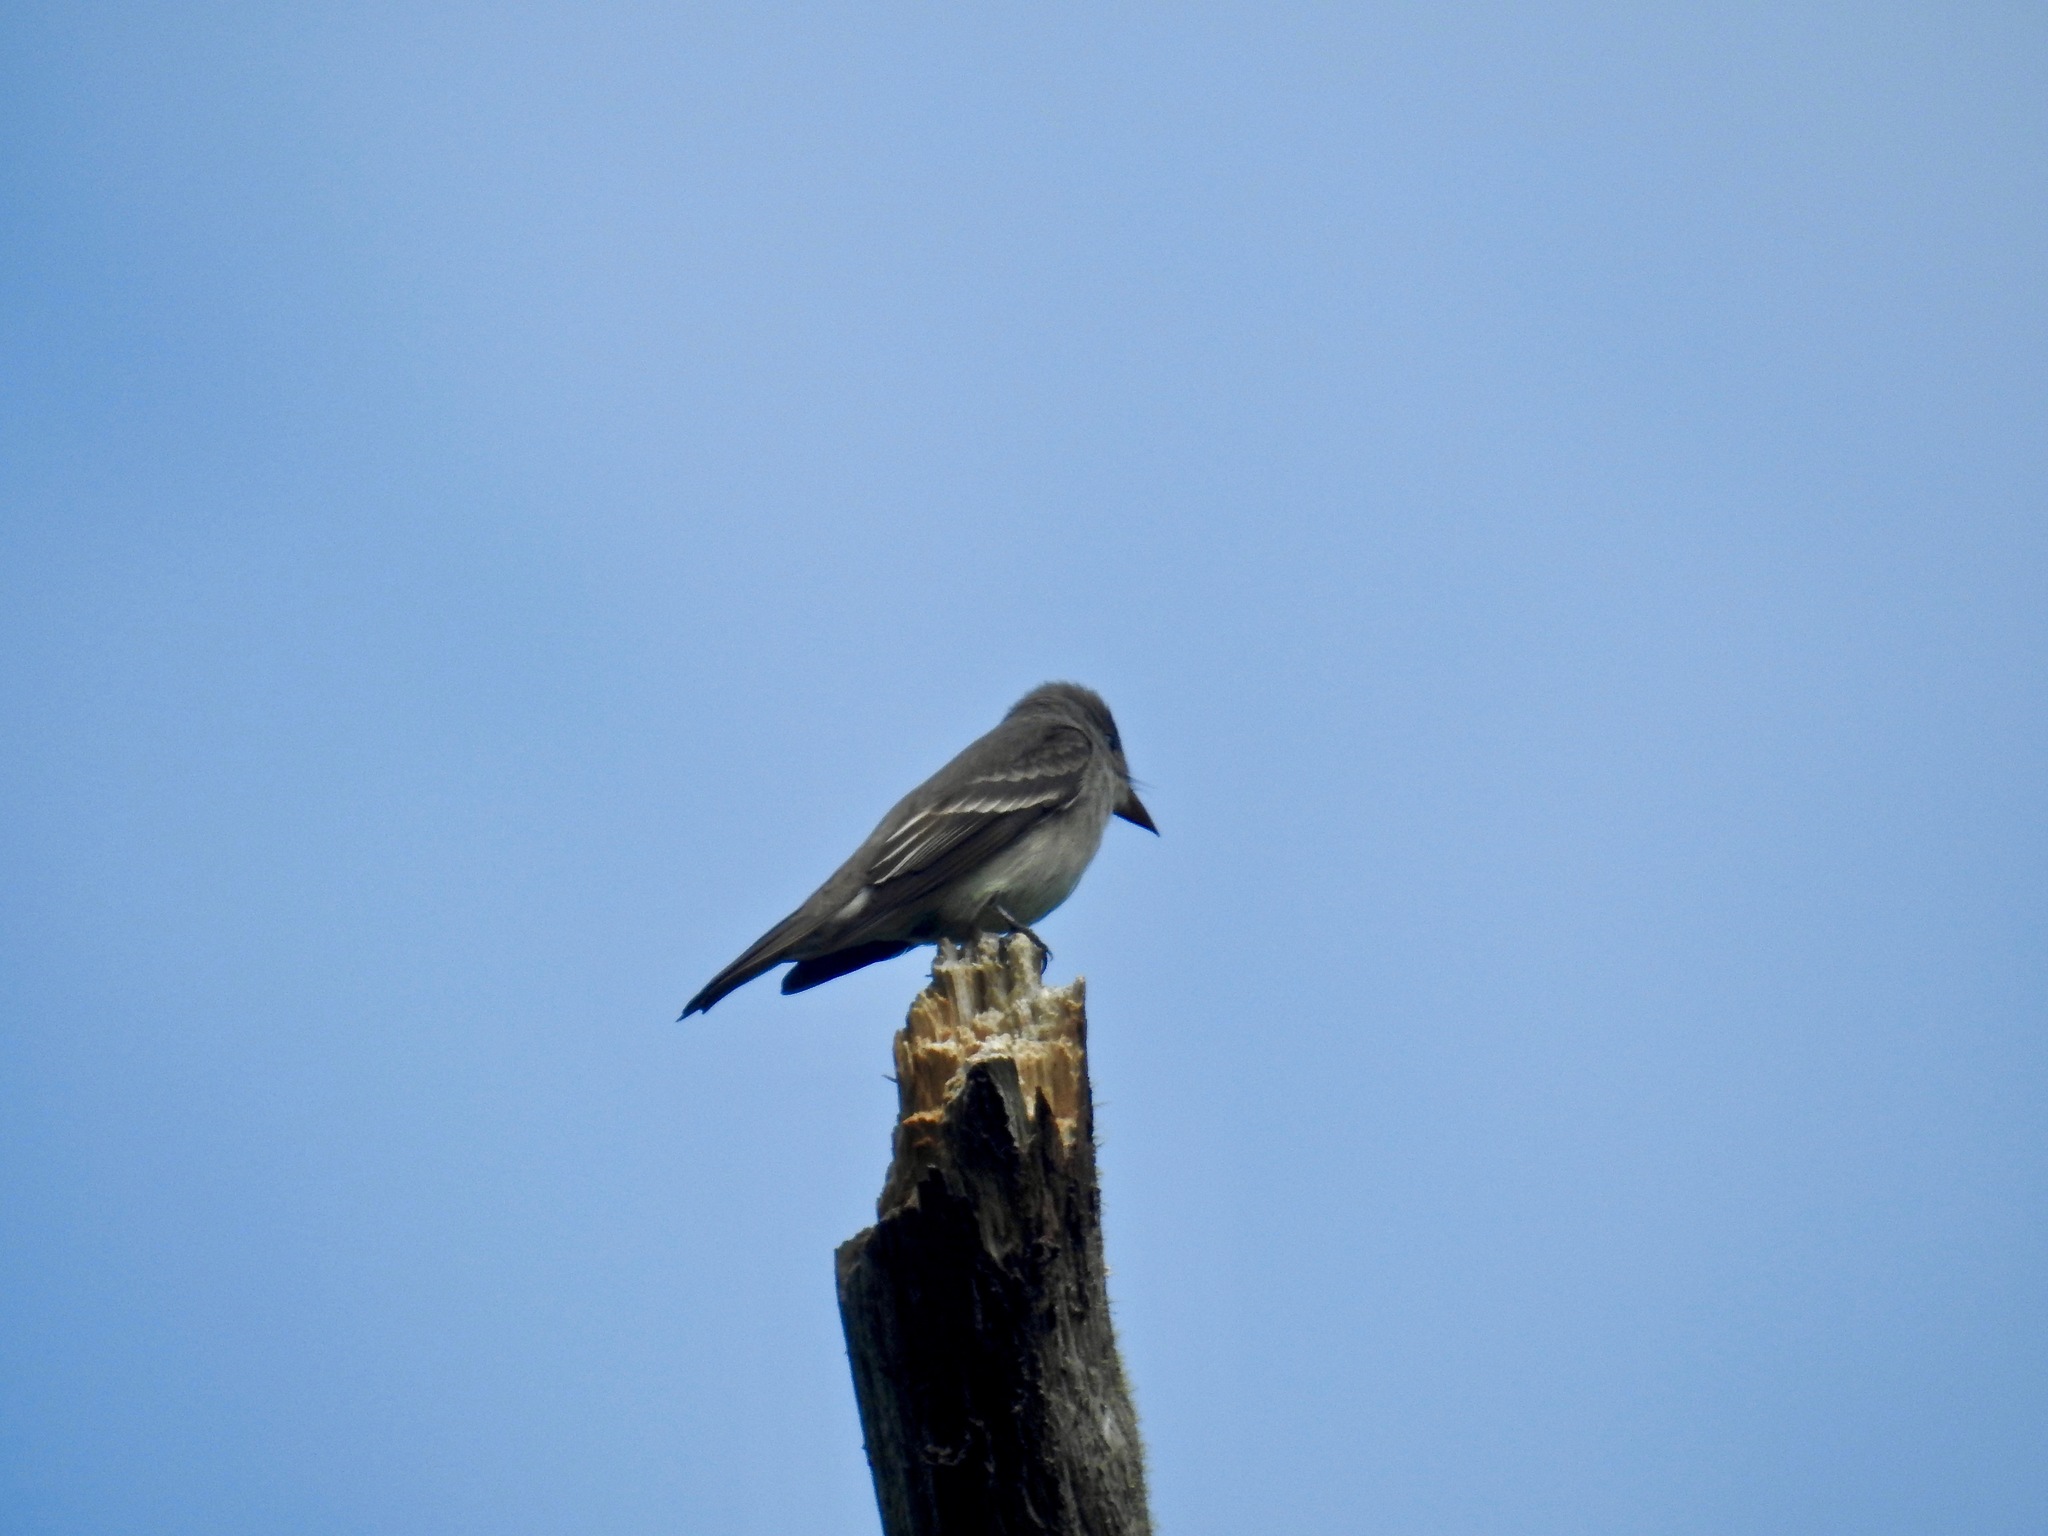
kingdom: Animalia
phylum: Chordata
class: Aves
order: Passeriformes
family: Tyrannidae
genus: Contopus
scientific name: Contopus sordidulus
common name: Western wood-pewee
